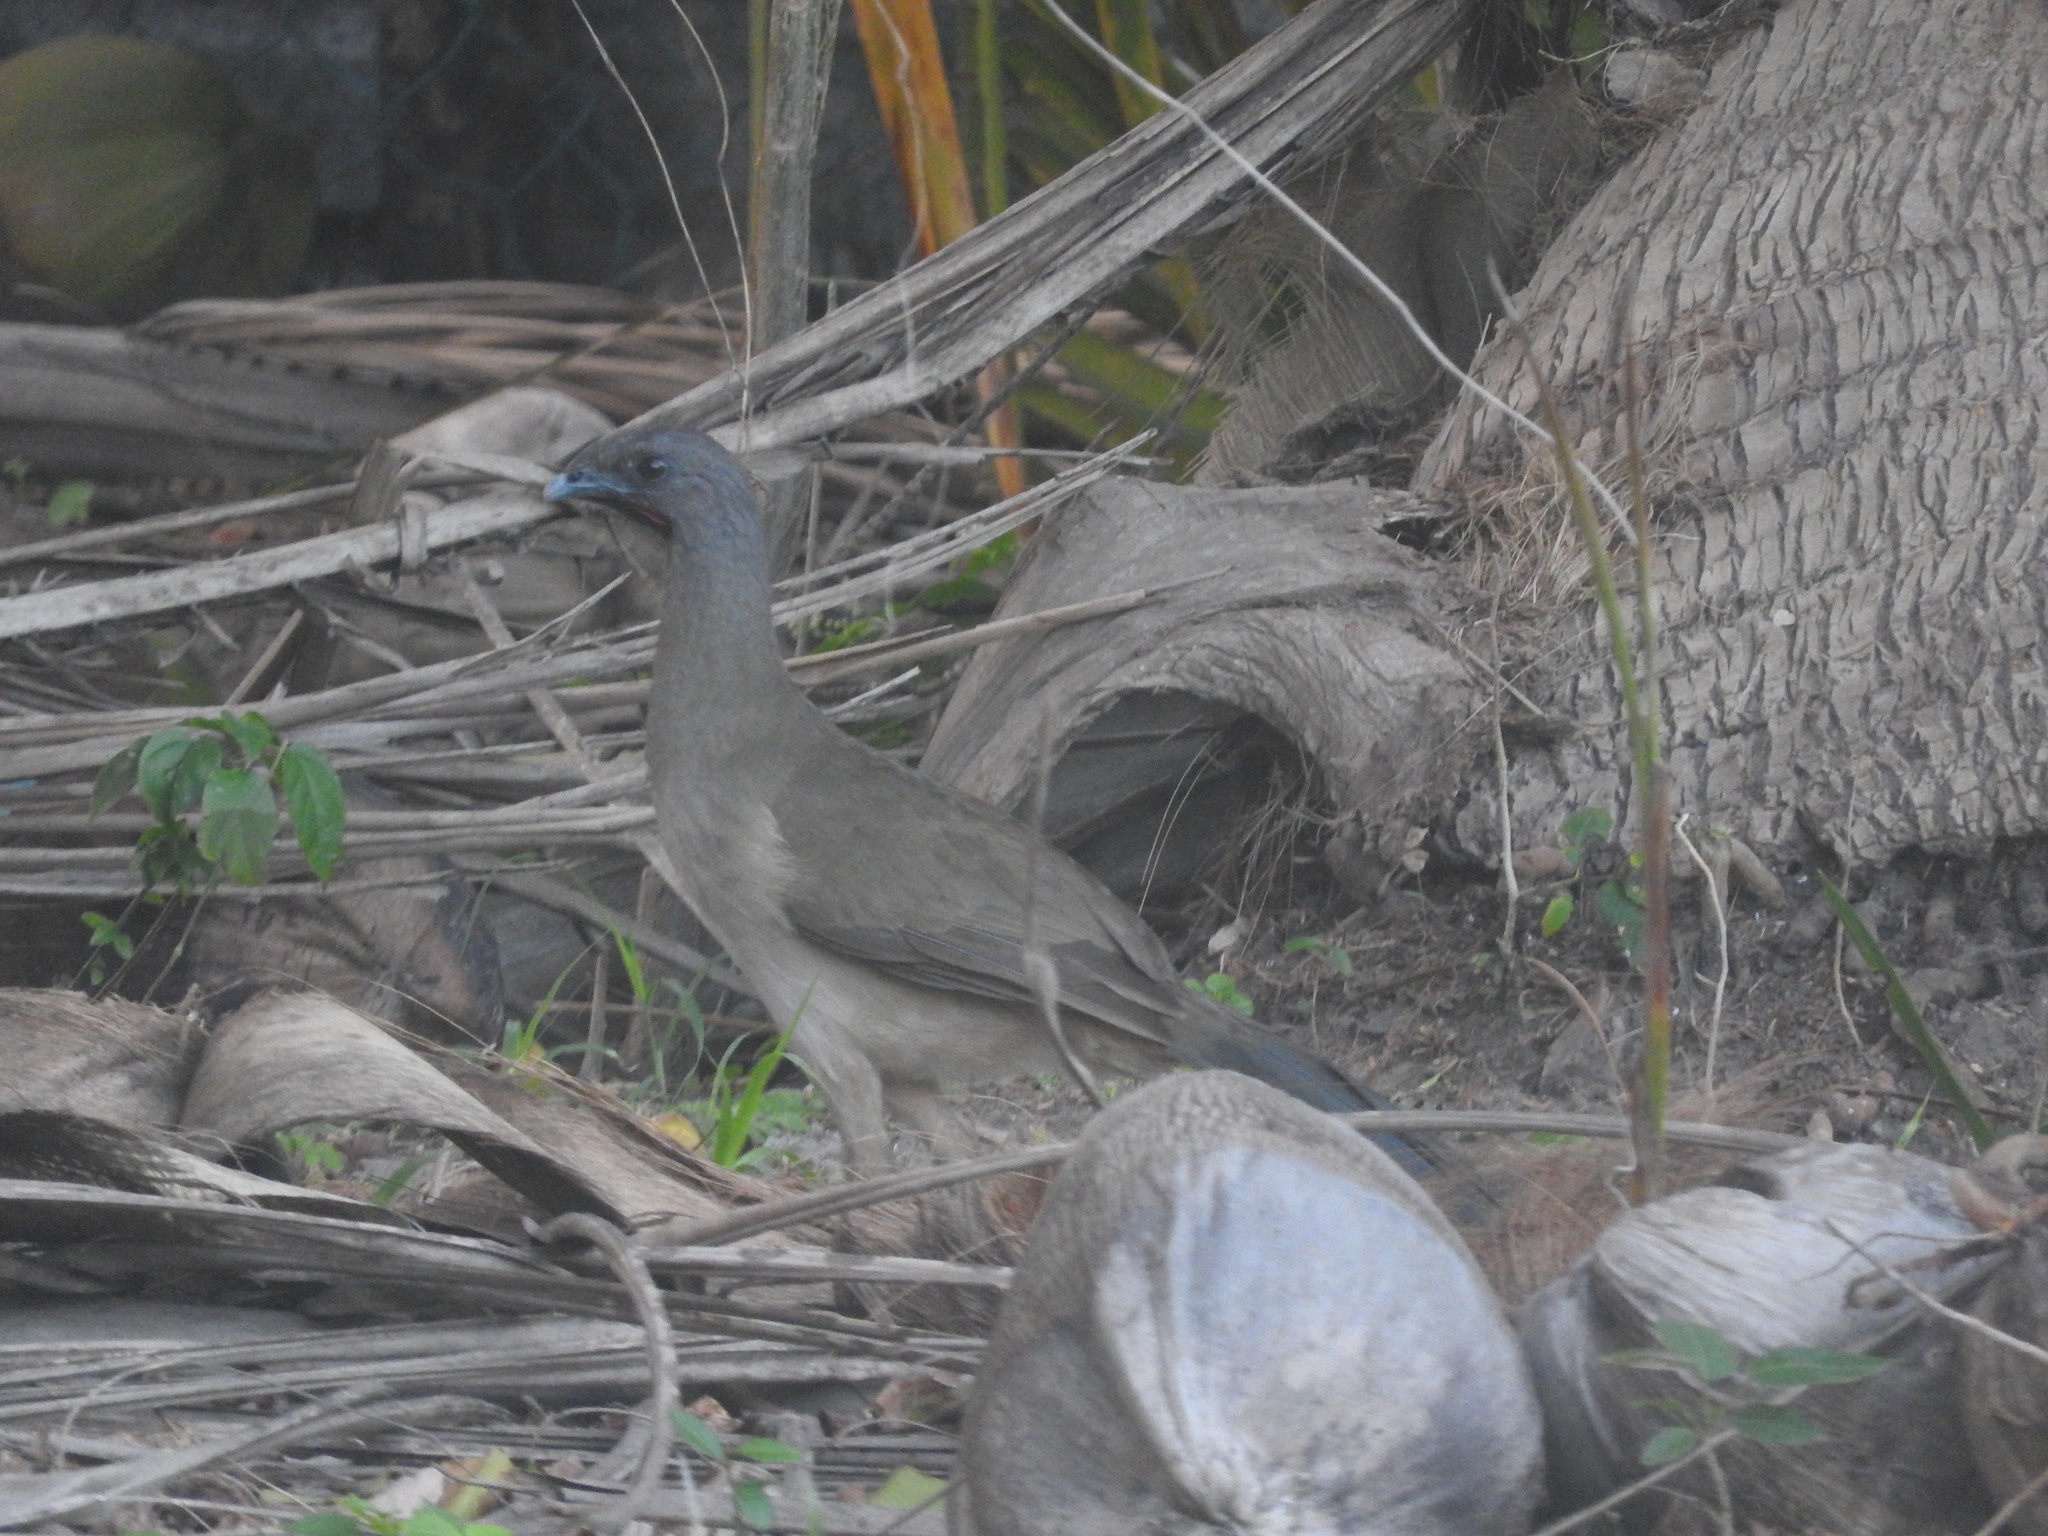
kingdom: Animalia
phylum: Chordata
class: Aves
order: Galliformes
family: Cracidae
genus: Ortalis
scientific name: Ortalis vetula
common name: Plain chachalaca
